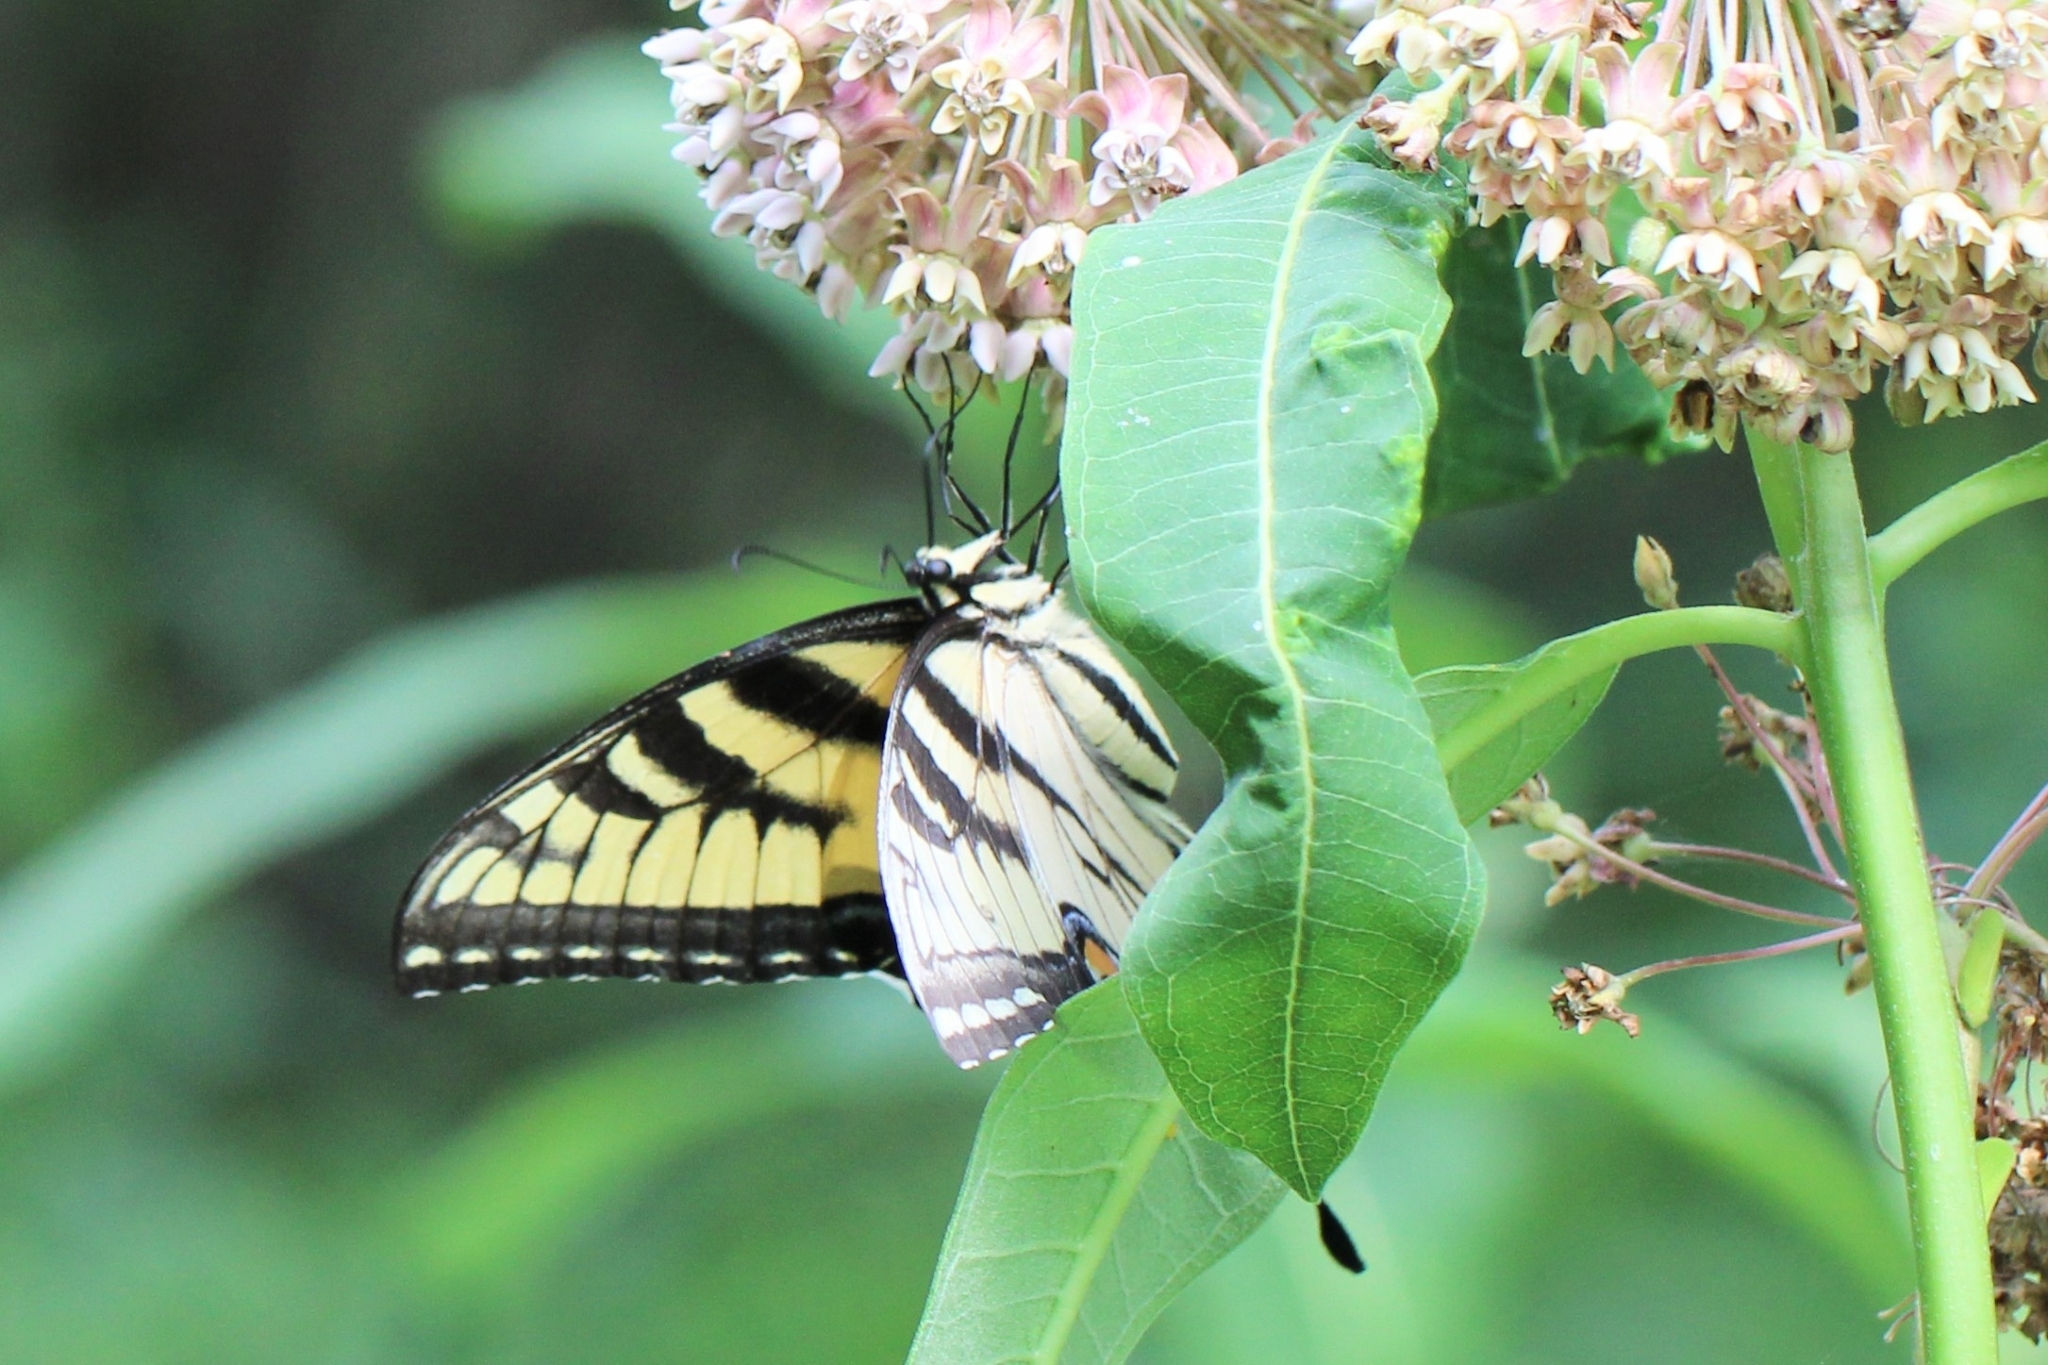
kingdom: Animalia
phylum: Arthropoda
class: Insecta
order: Lepidoptera
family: Papilionidae
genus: Papilio
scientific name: Papilio glaucus
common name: Tiger swallowtail
